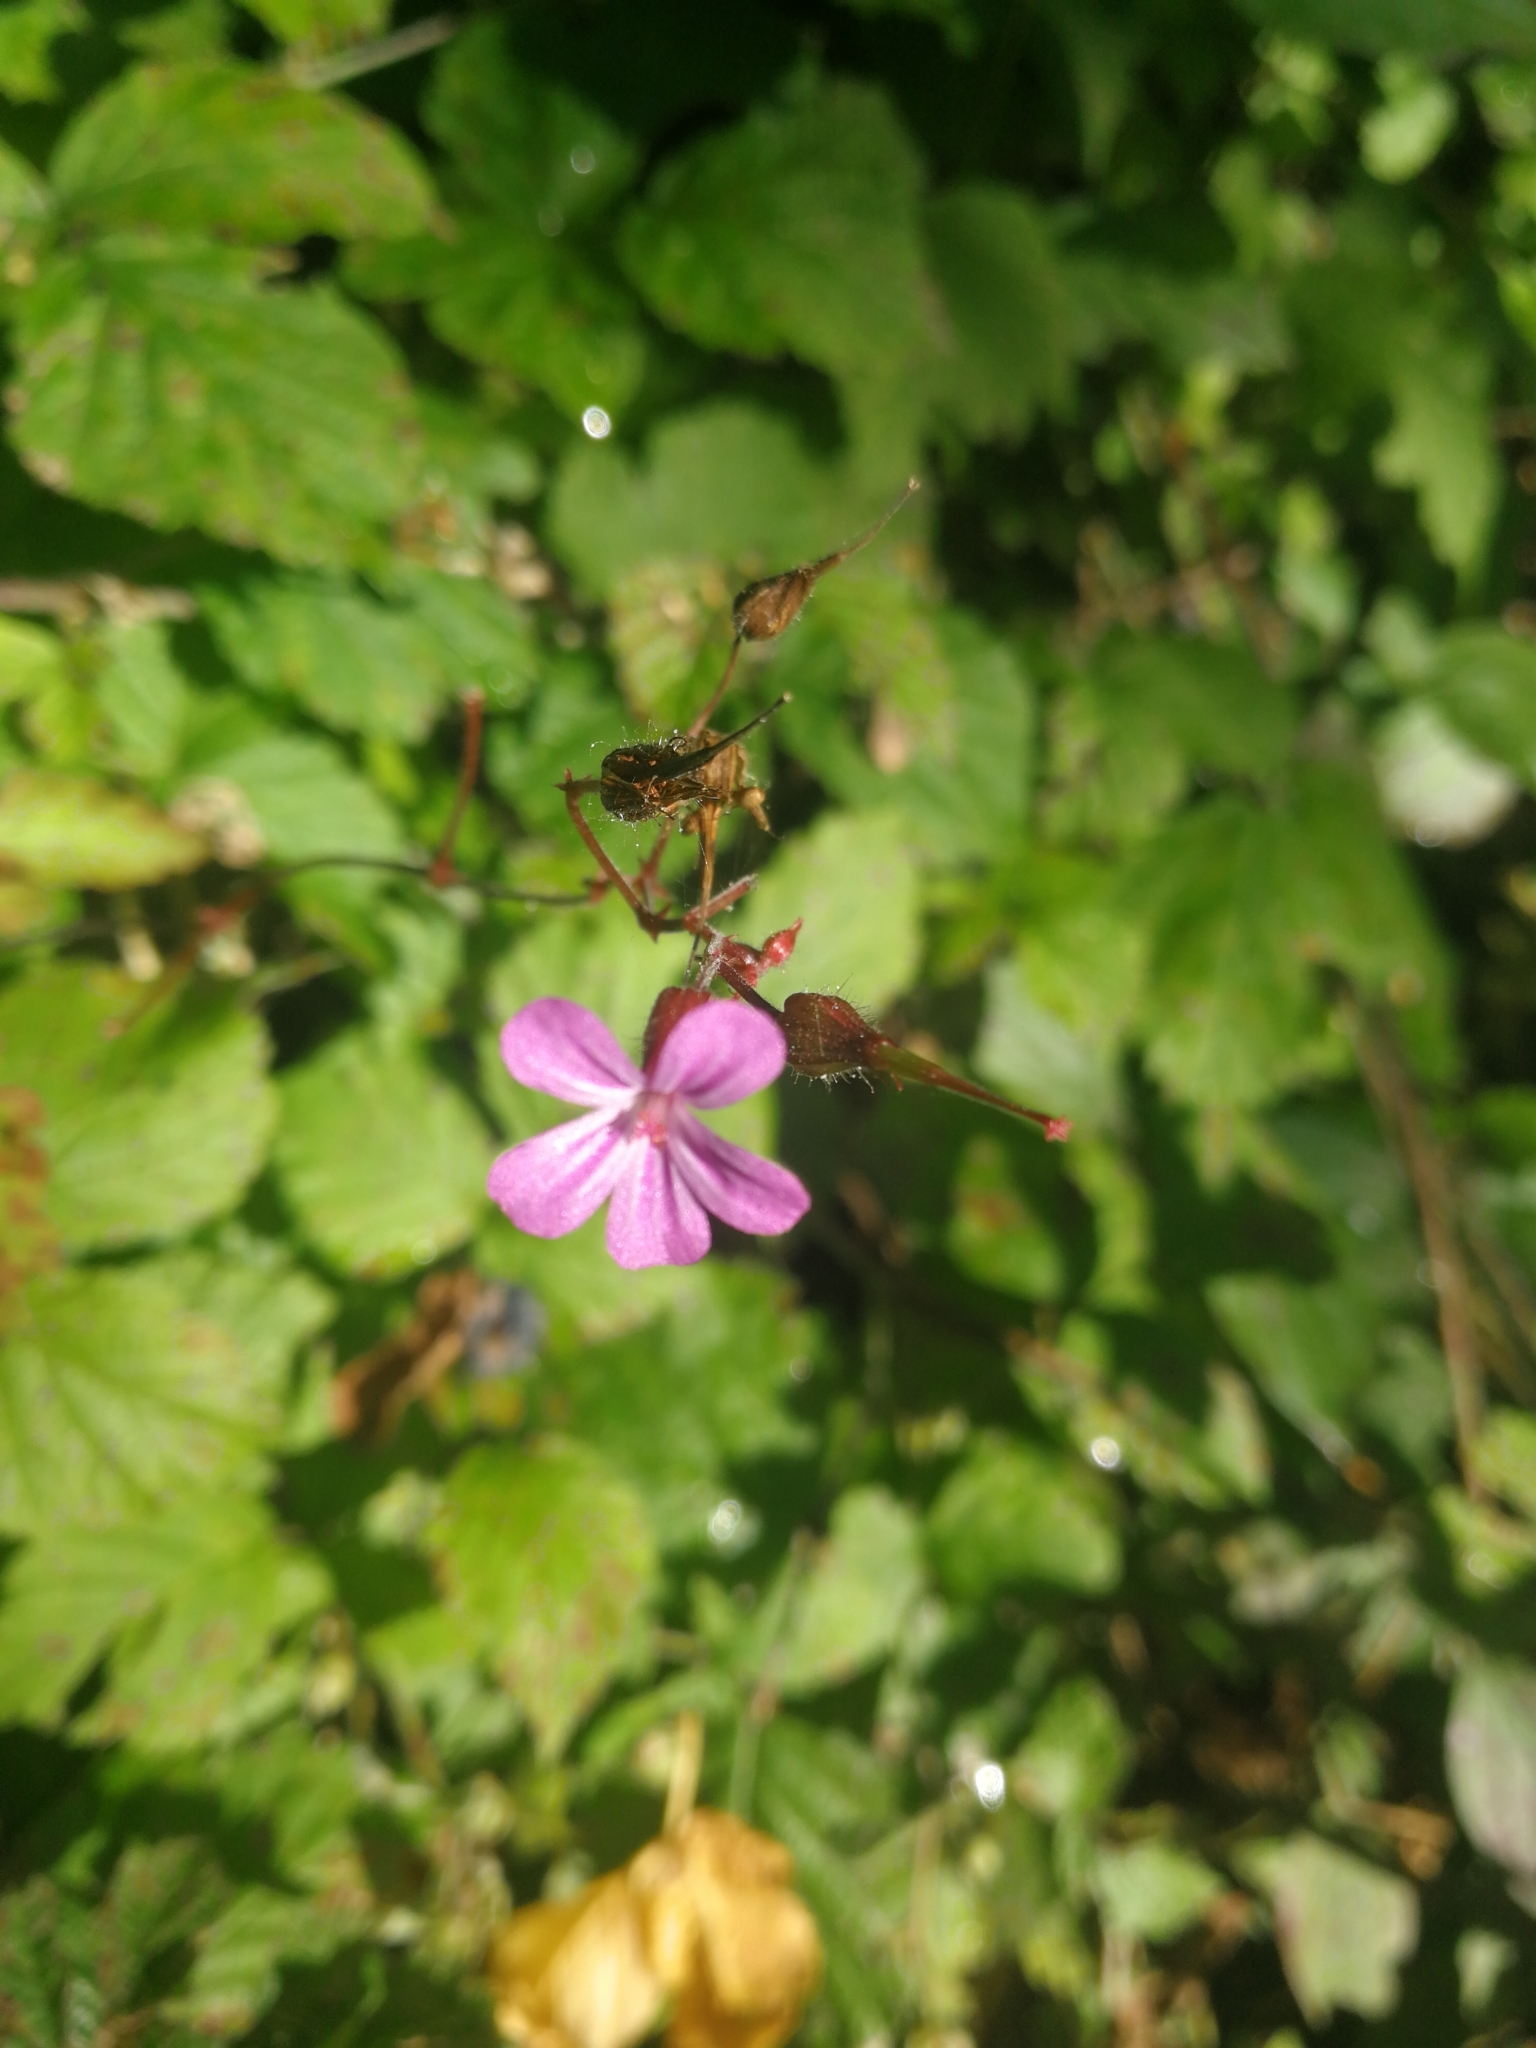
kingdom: Plantae
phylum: Tracheophyta
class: Magnoliopsida
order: Geraniales
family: Geraniaceae
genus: Geranium
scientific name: Geranium robertianum
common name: Herb-robert
